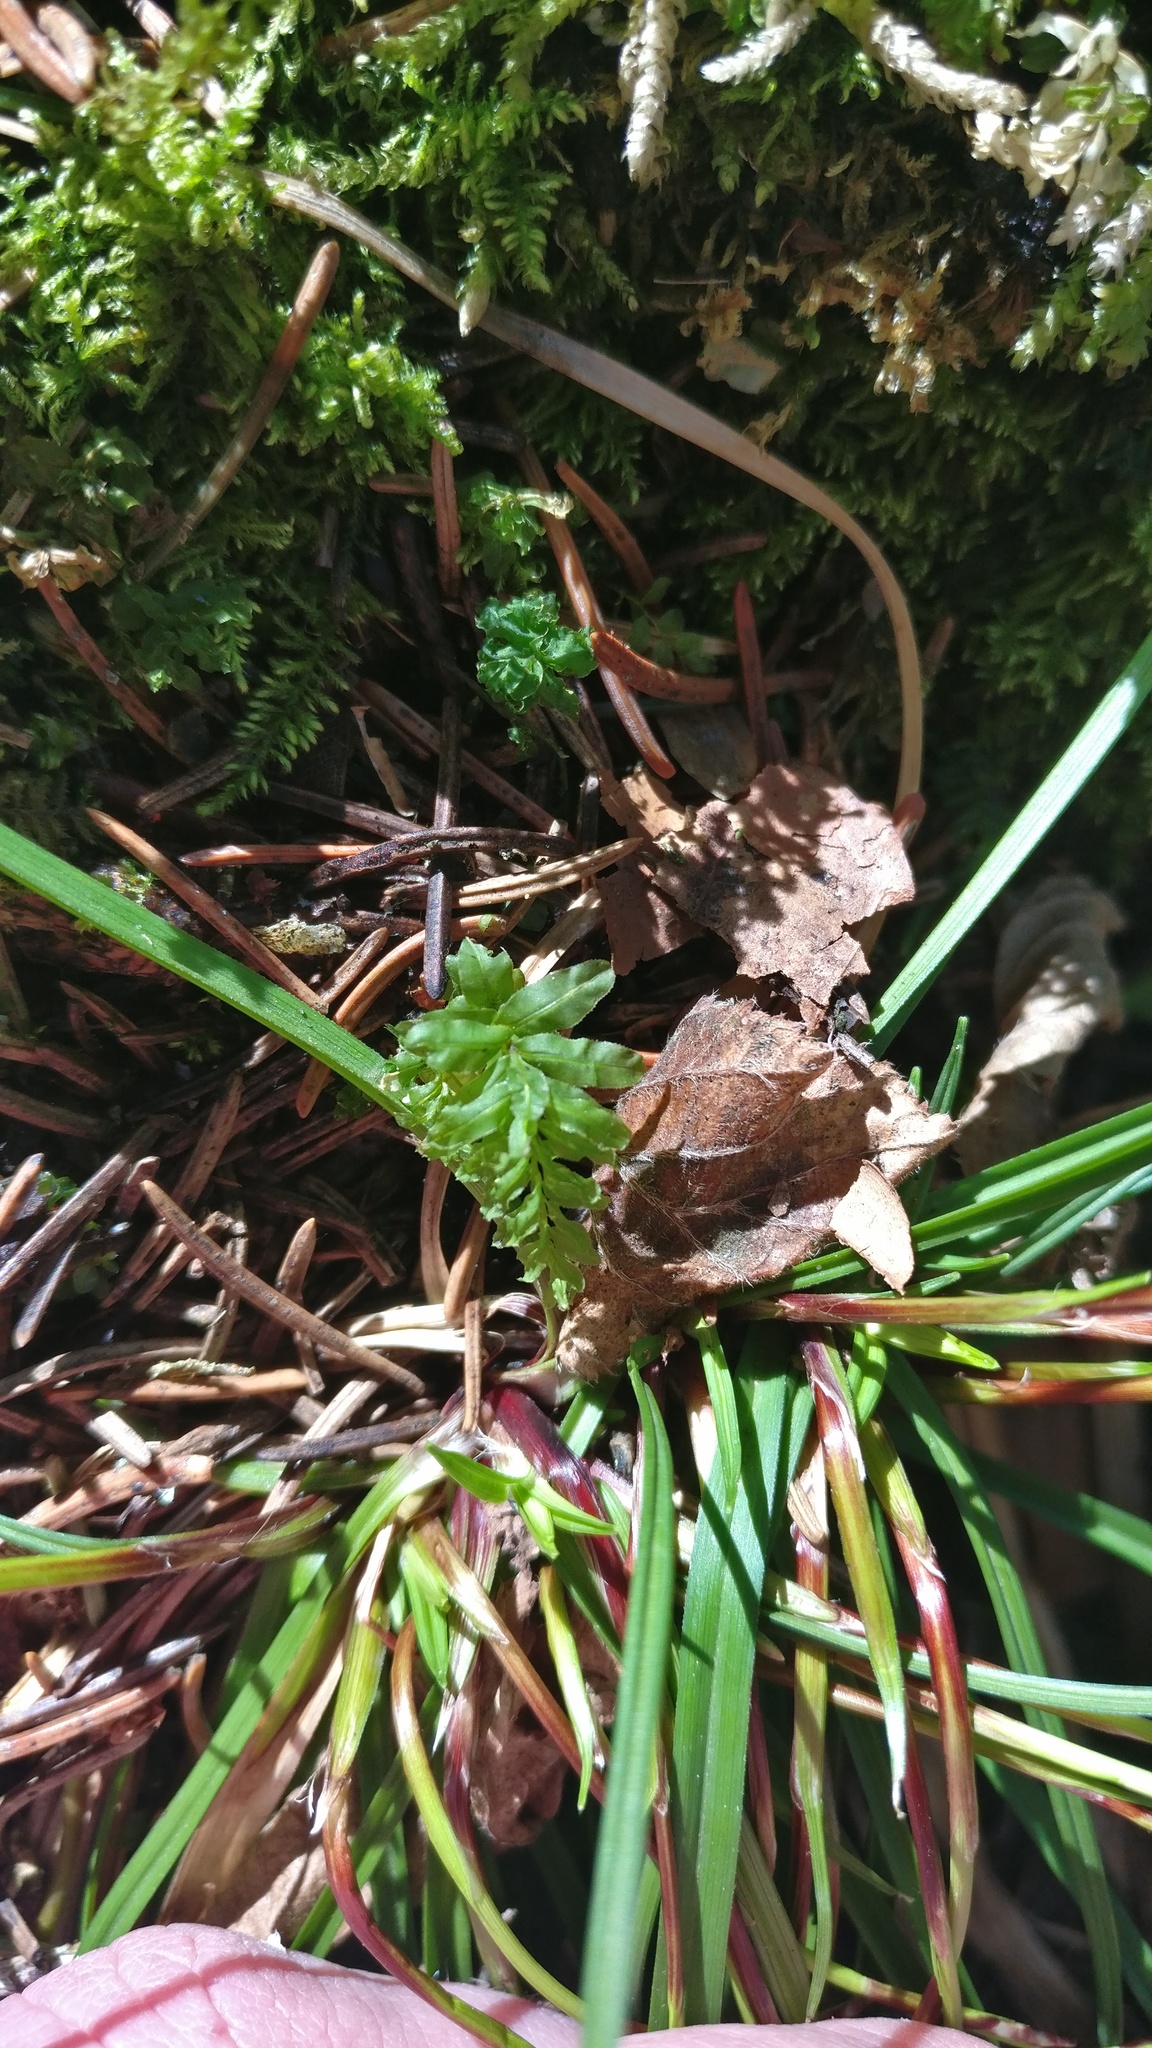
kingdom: Plantae
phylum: Bryophyta
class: Bryopsida
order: Bryales
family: Mniaceae
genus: Plagiomnium
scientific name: Plagiomnium undulatum
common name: Hart's-tongue thyme-moss
